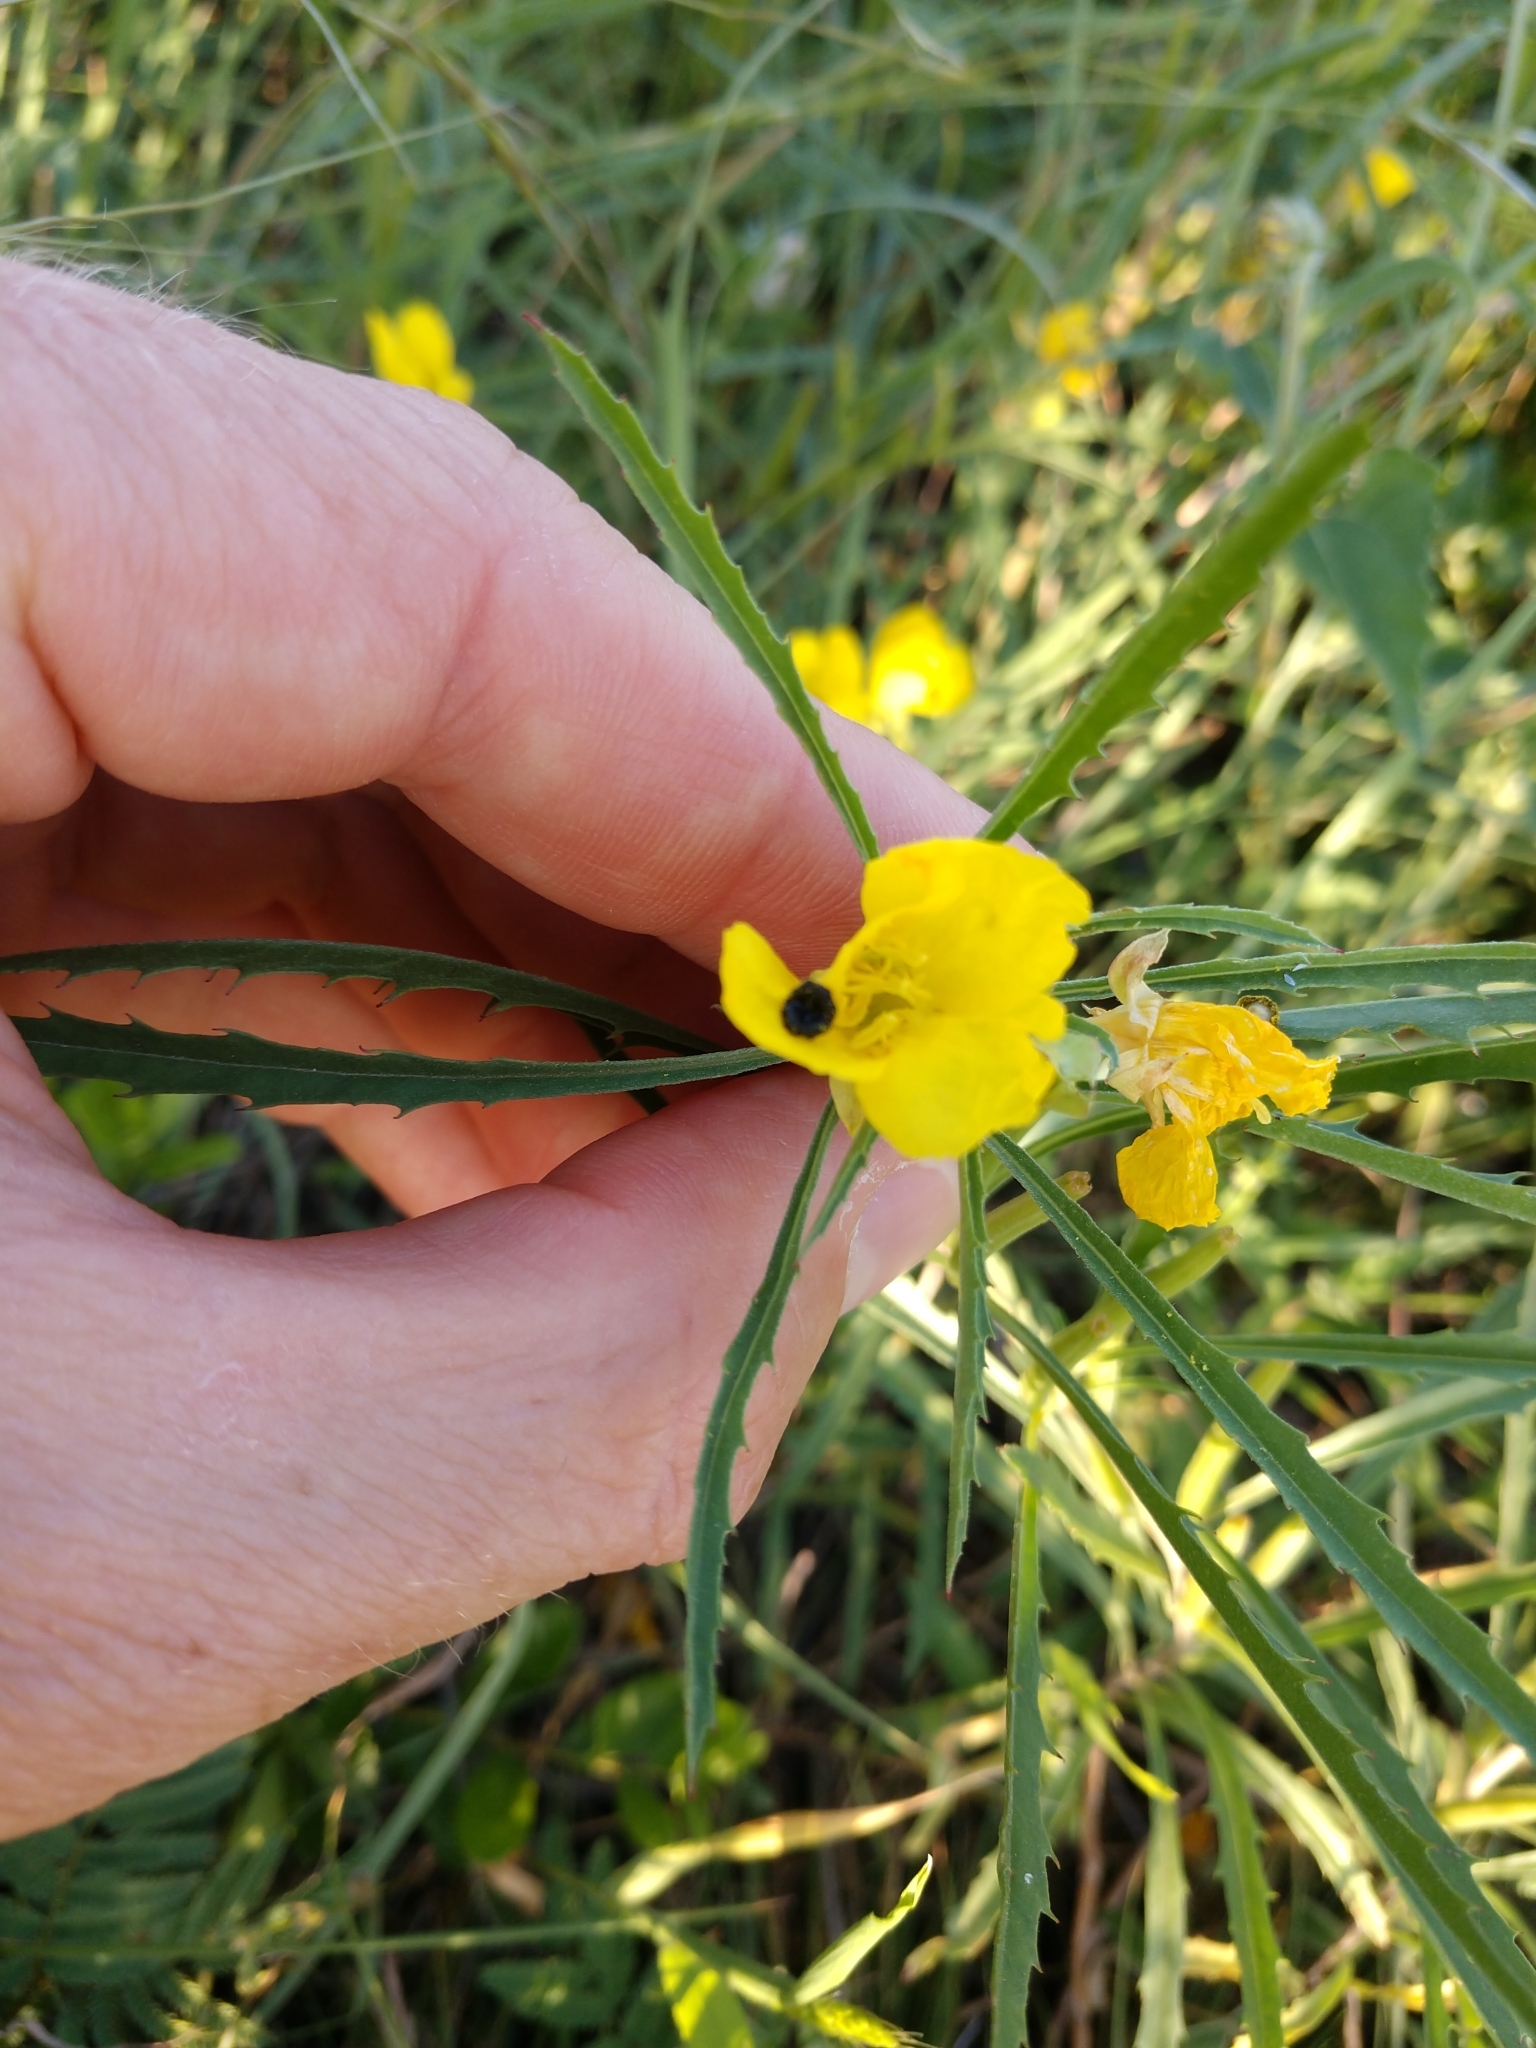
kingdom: Plantae
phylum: Tracheophyta
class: Magnoliopsida
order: Myrtales
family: Onagraceae
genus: Oenothera
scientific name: Oenothera
